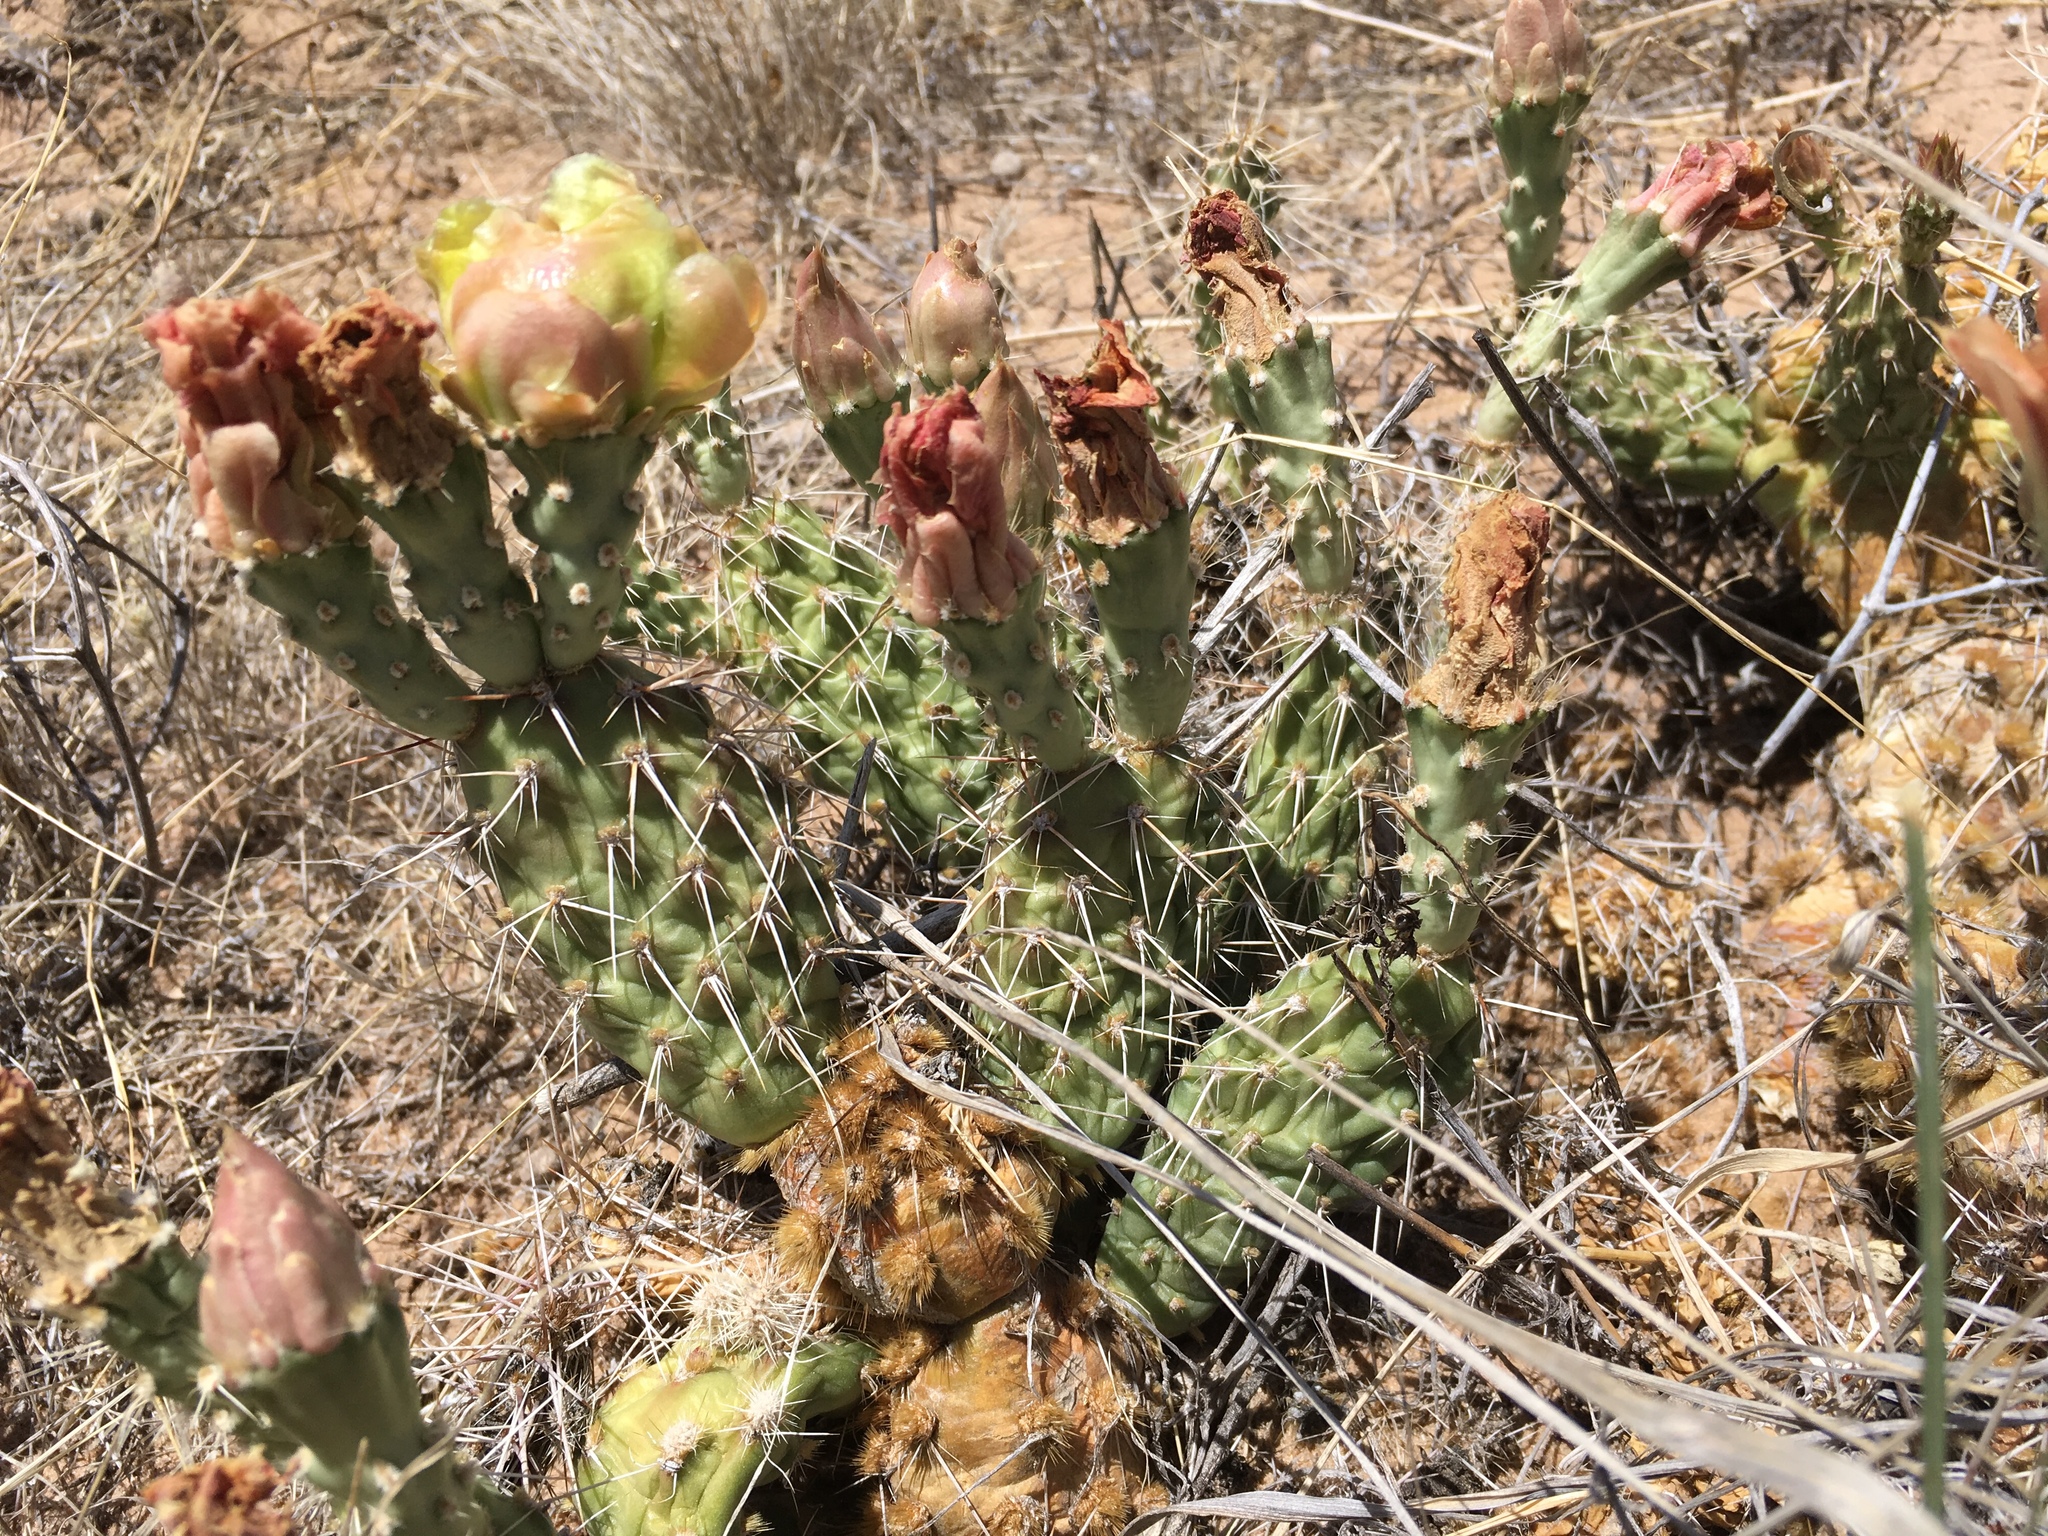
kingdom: Plantae
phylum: Tracheophyta
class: Magnoliopsida
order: Caryophyllales
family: Cactaceae
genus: Opuntia
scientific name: Opuntia polyacantha
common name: Plains prickly-pear
